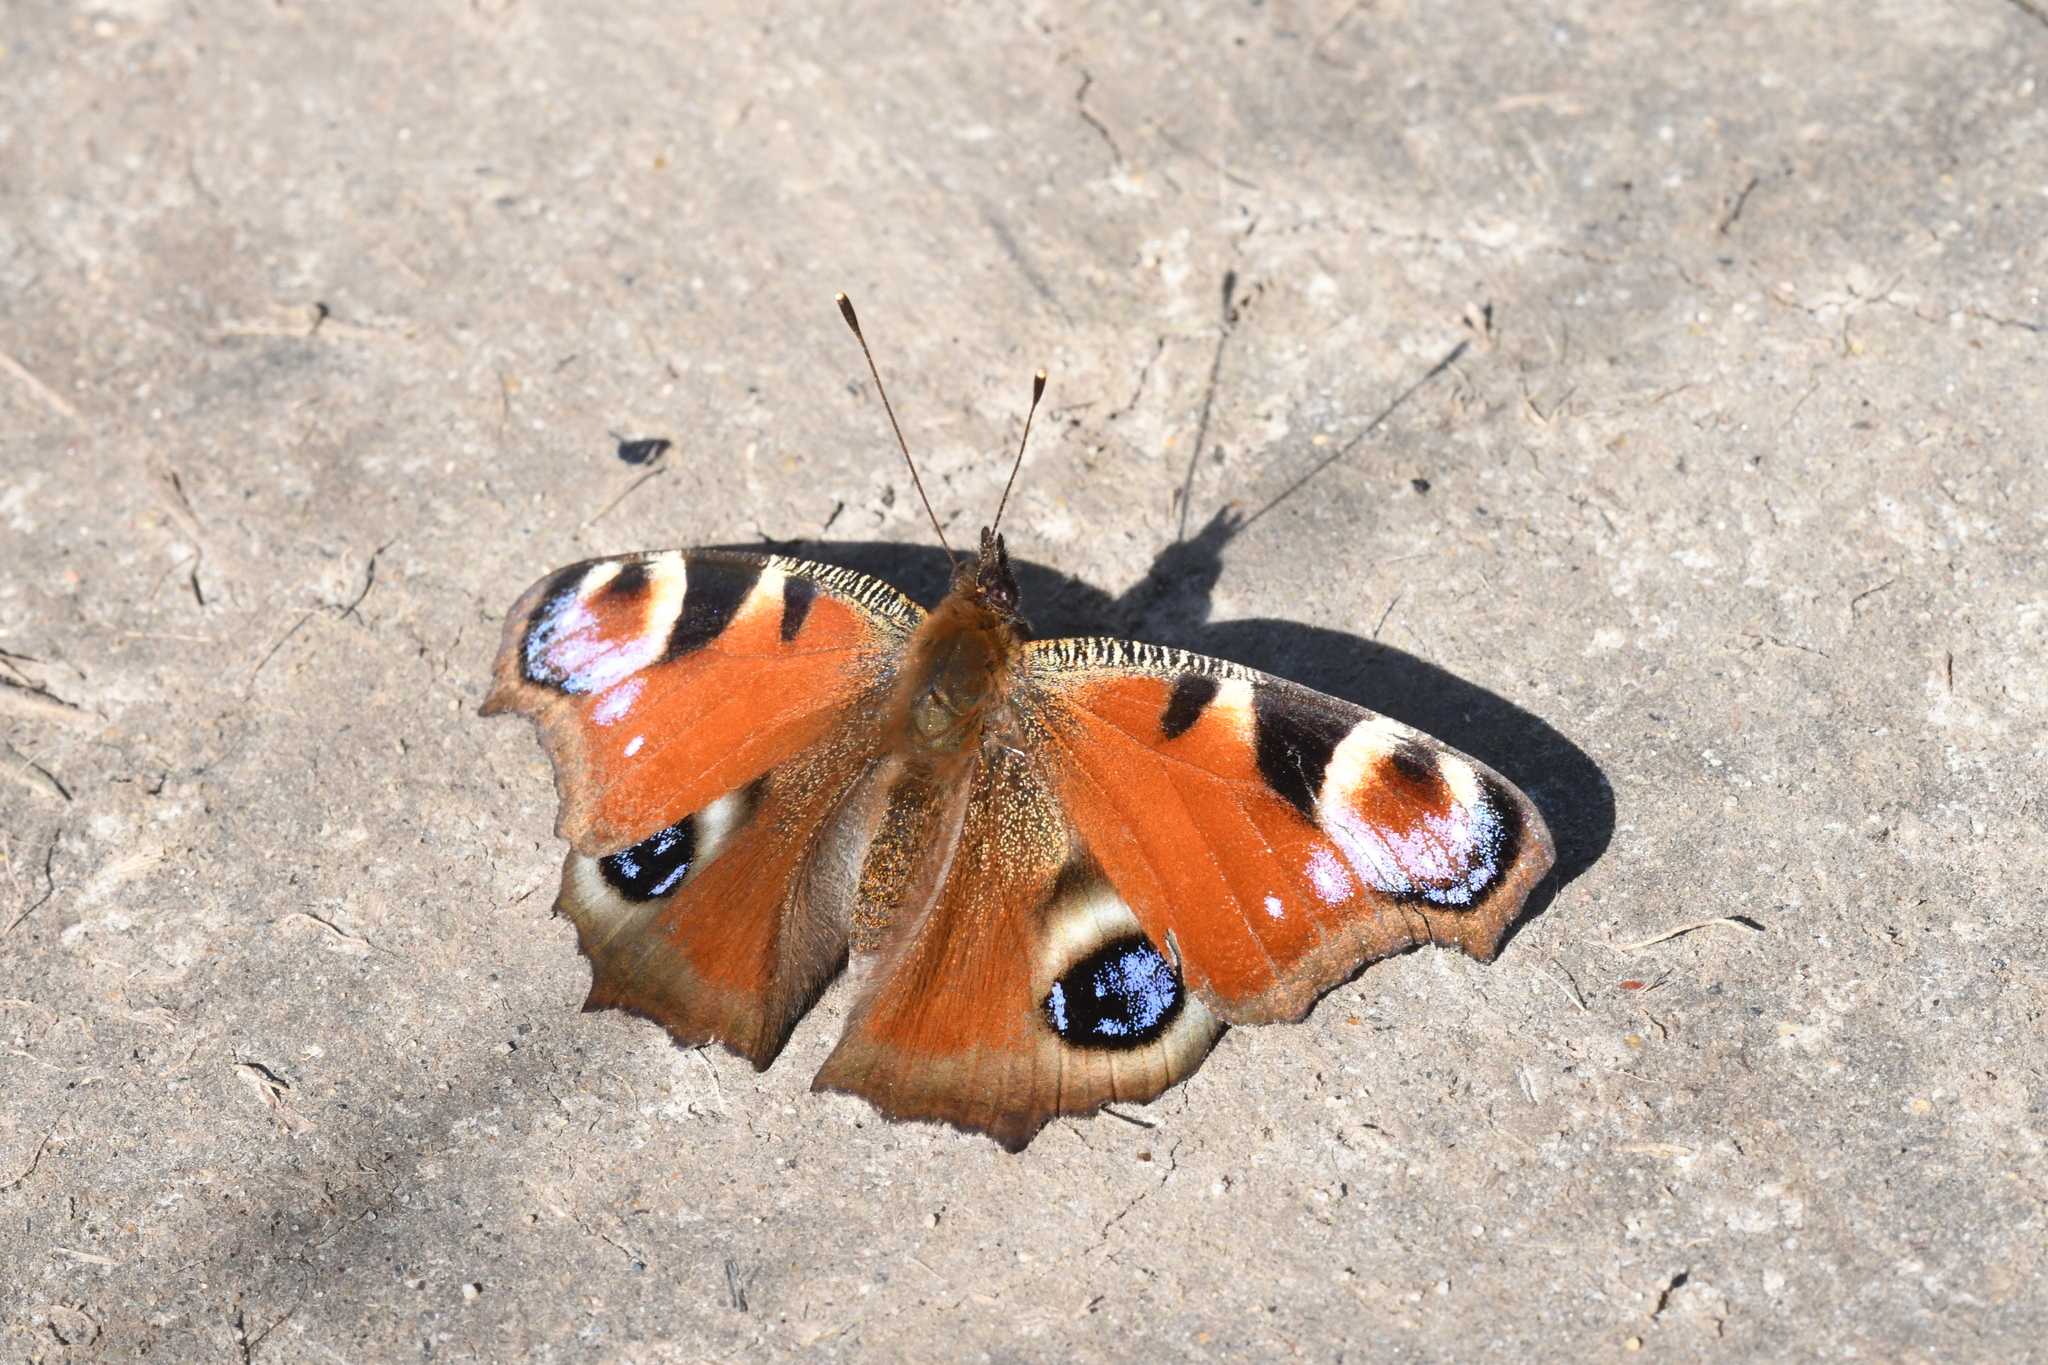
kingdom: Animalia
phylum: Arthropoda
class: Insecta
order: Lepidoptera
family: Nymphalidae
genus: Aglais
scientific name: Aglais io
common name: Peacock
